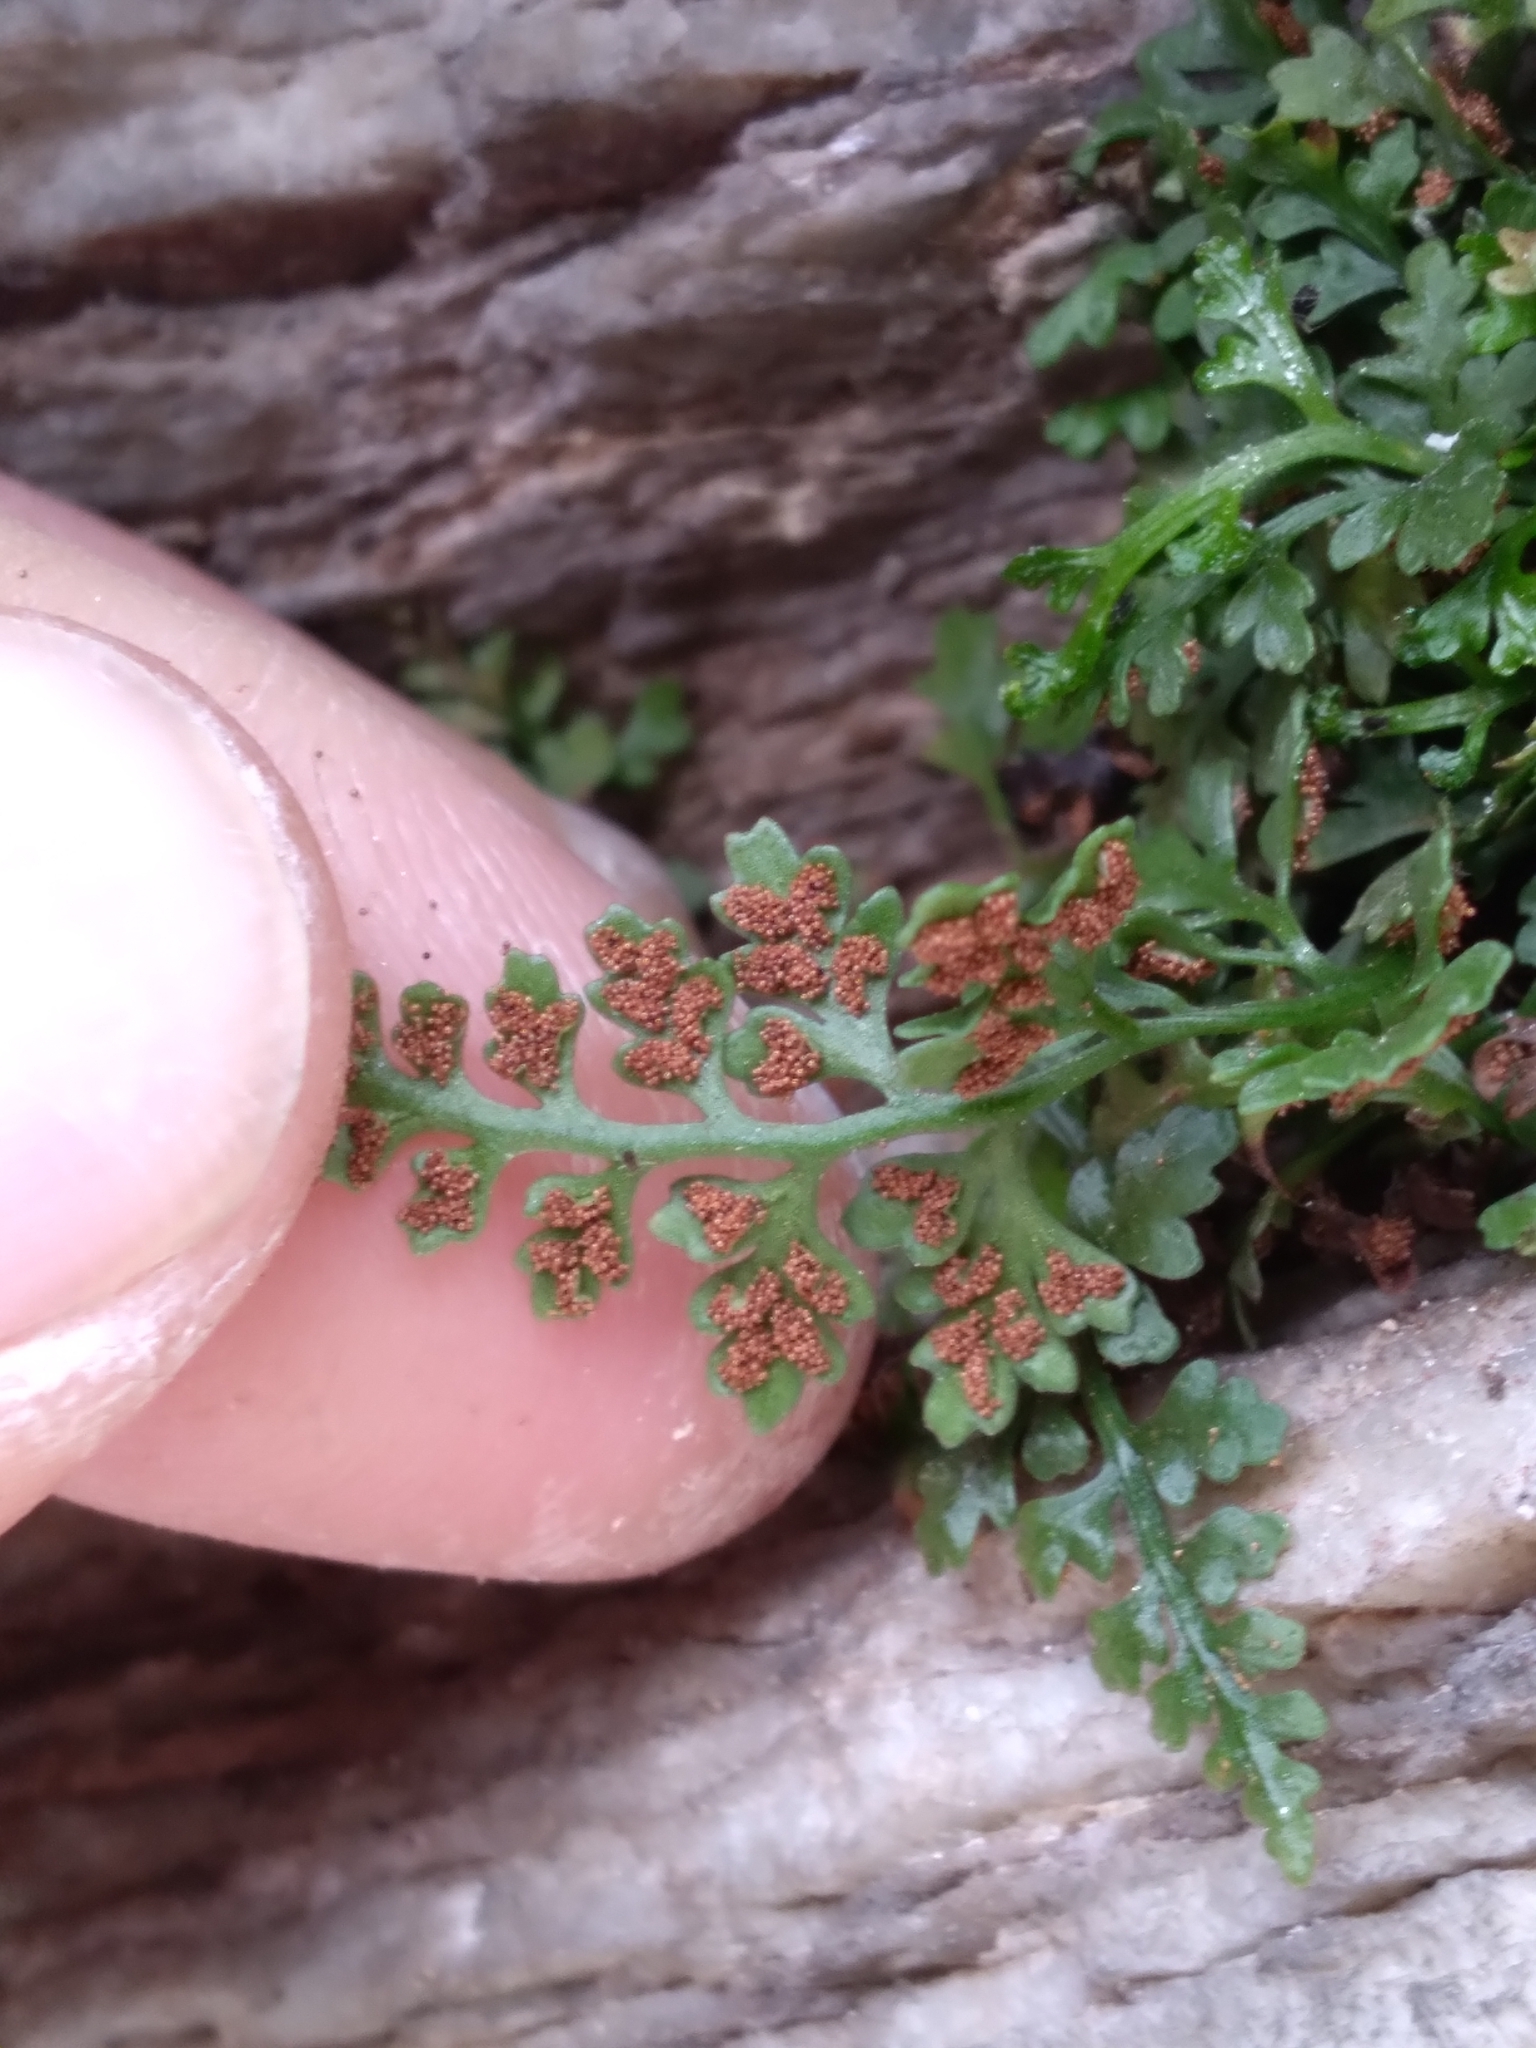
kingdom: Plantae
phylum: Tracheophyta
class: Polypodiopsida
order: Polypodiales
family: Aspleniaceae
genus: Asplenium
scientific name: Asplenium montanum
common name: Mountain spleenwort
